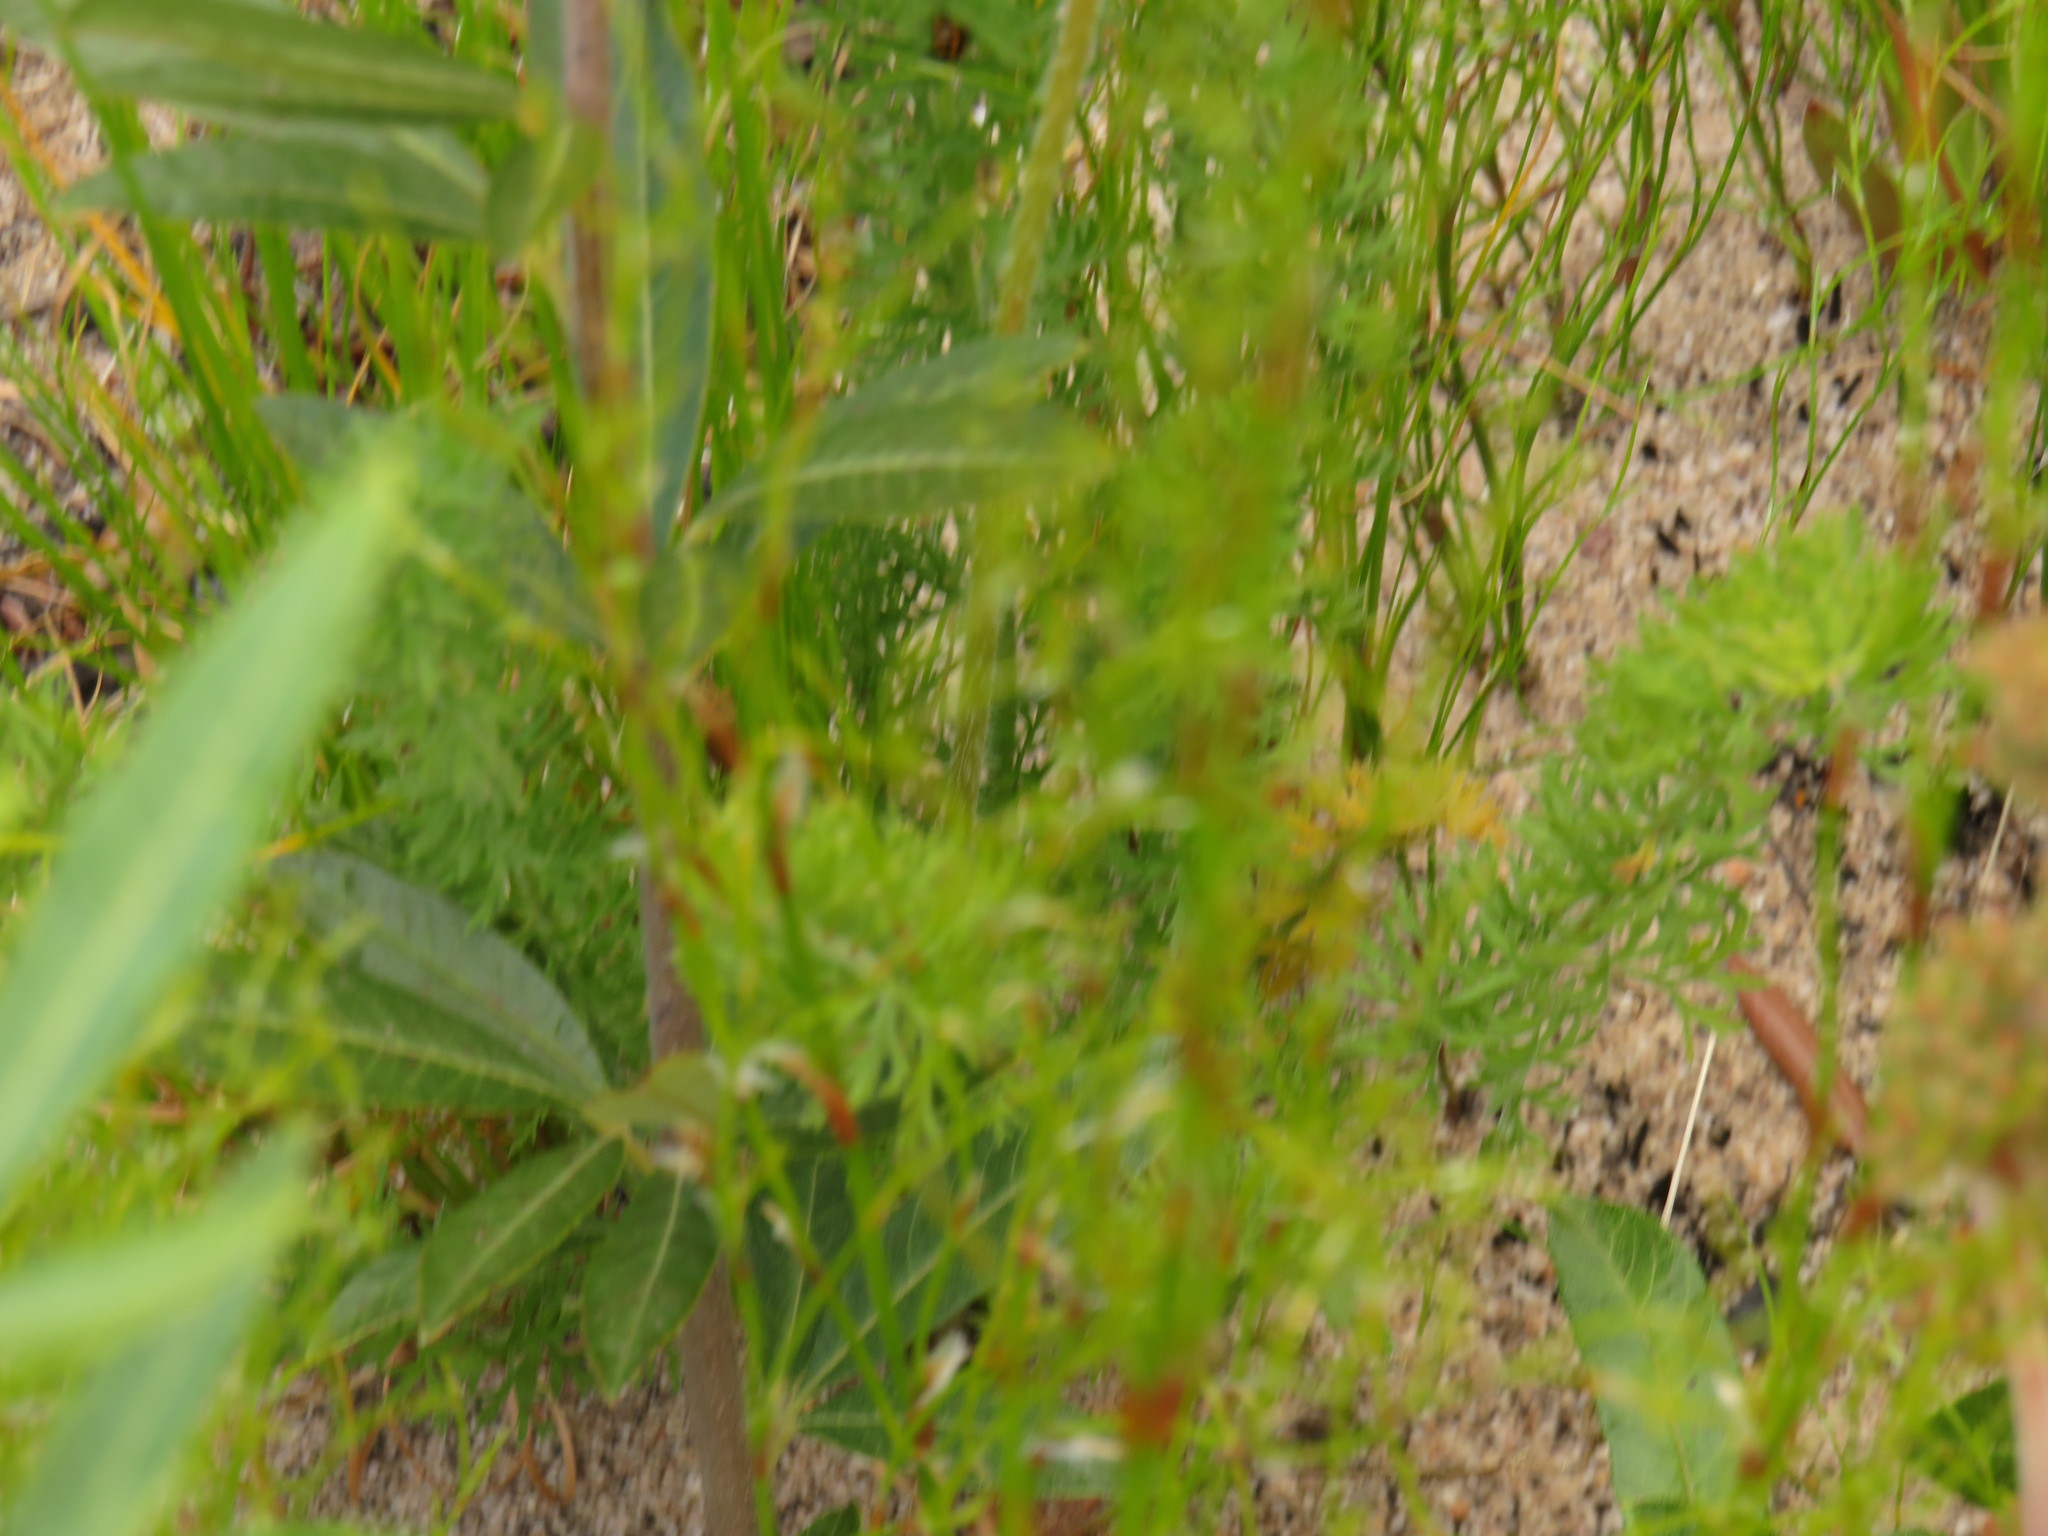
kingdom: Plantae
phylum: Tracheophyta
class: Magnoliopsida
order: Geraniales
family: Geraniaceae
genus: Pelargonium
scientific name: Pelargonium rapaceum
